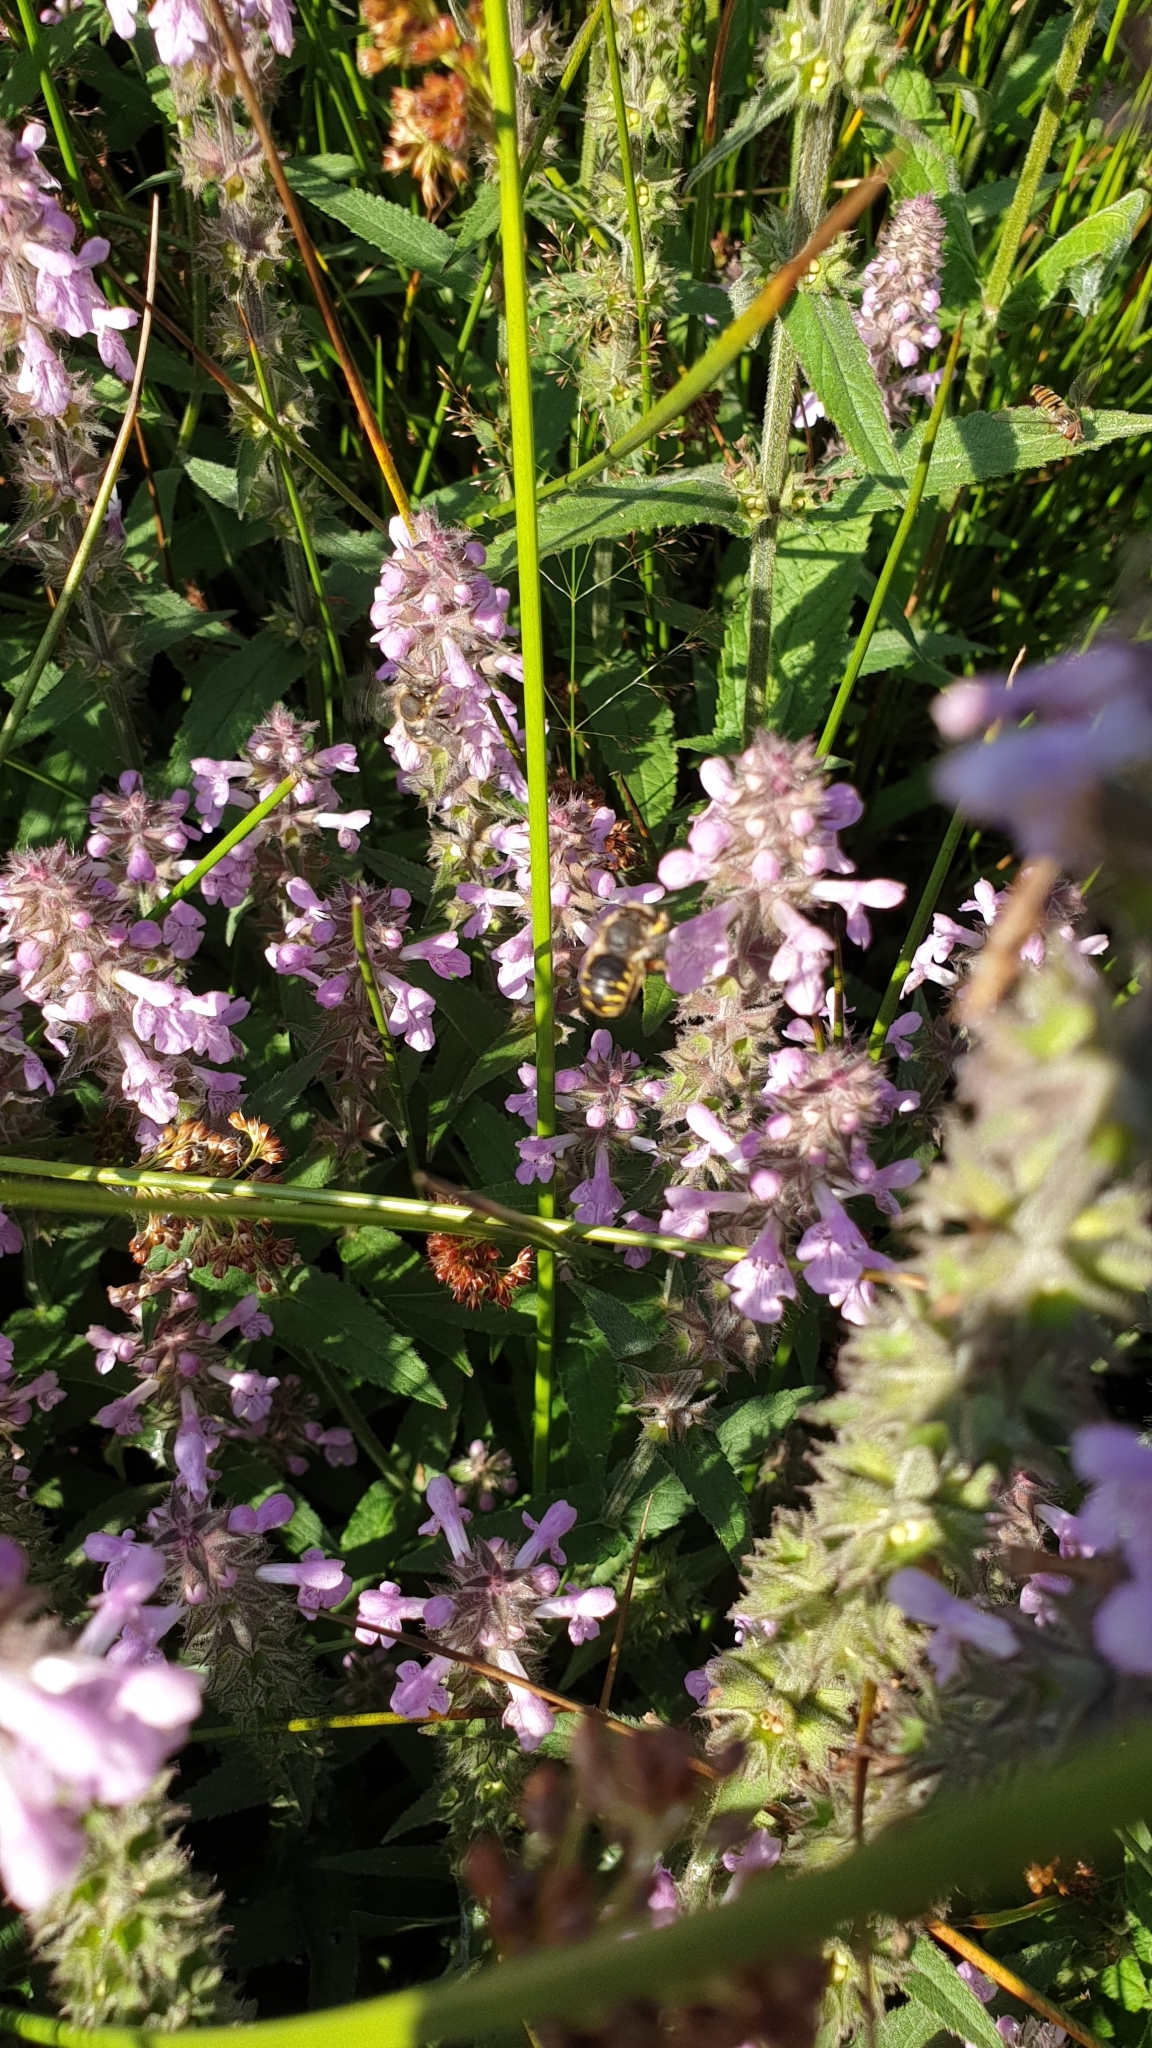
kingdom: Plantae
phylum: Tracheophyta
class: Magnoliopsida
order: Lamiales
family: Lamiaceae
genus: Stachys
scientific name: Stachys palustris
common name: Marsh woundwort
